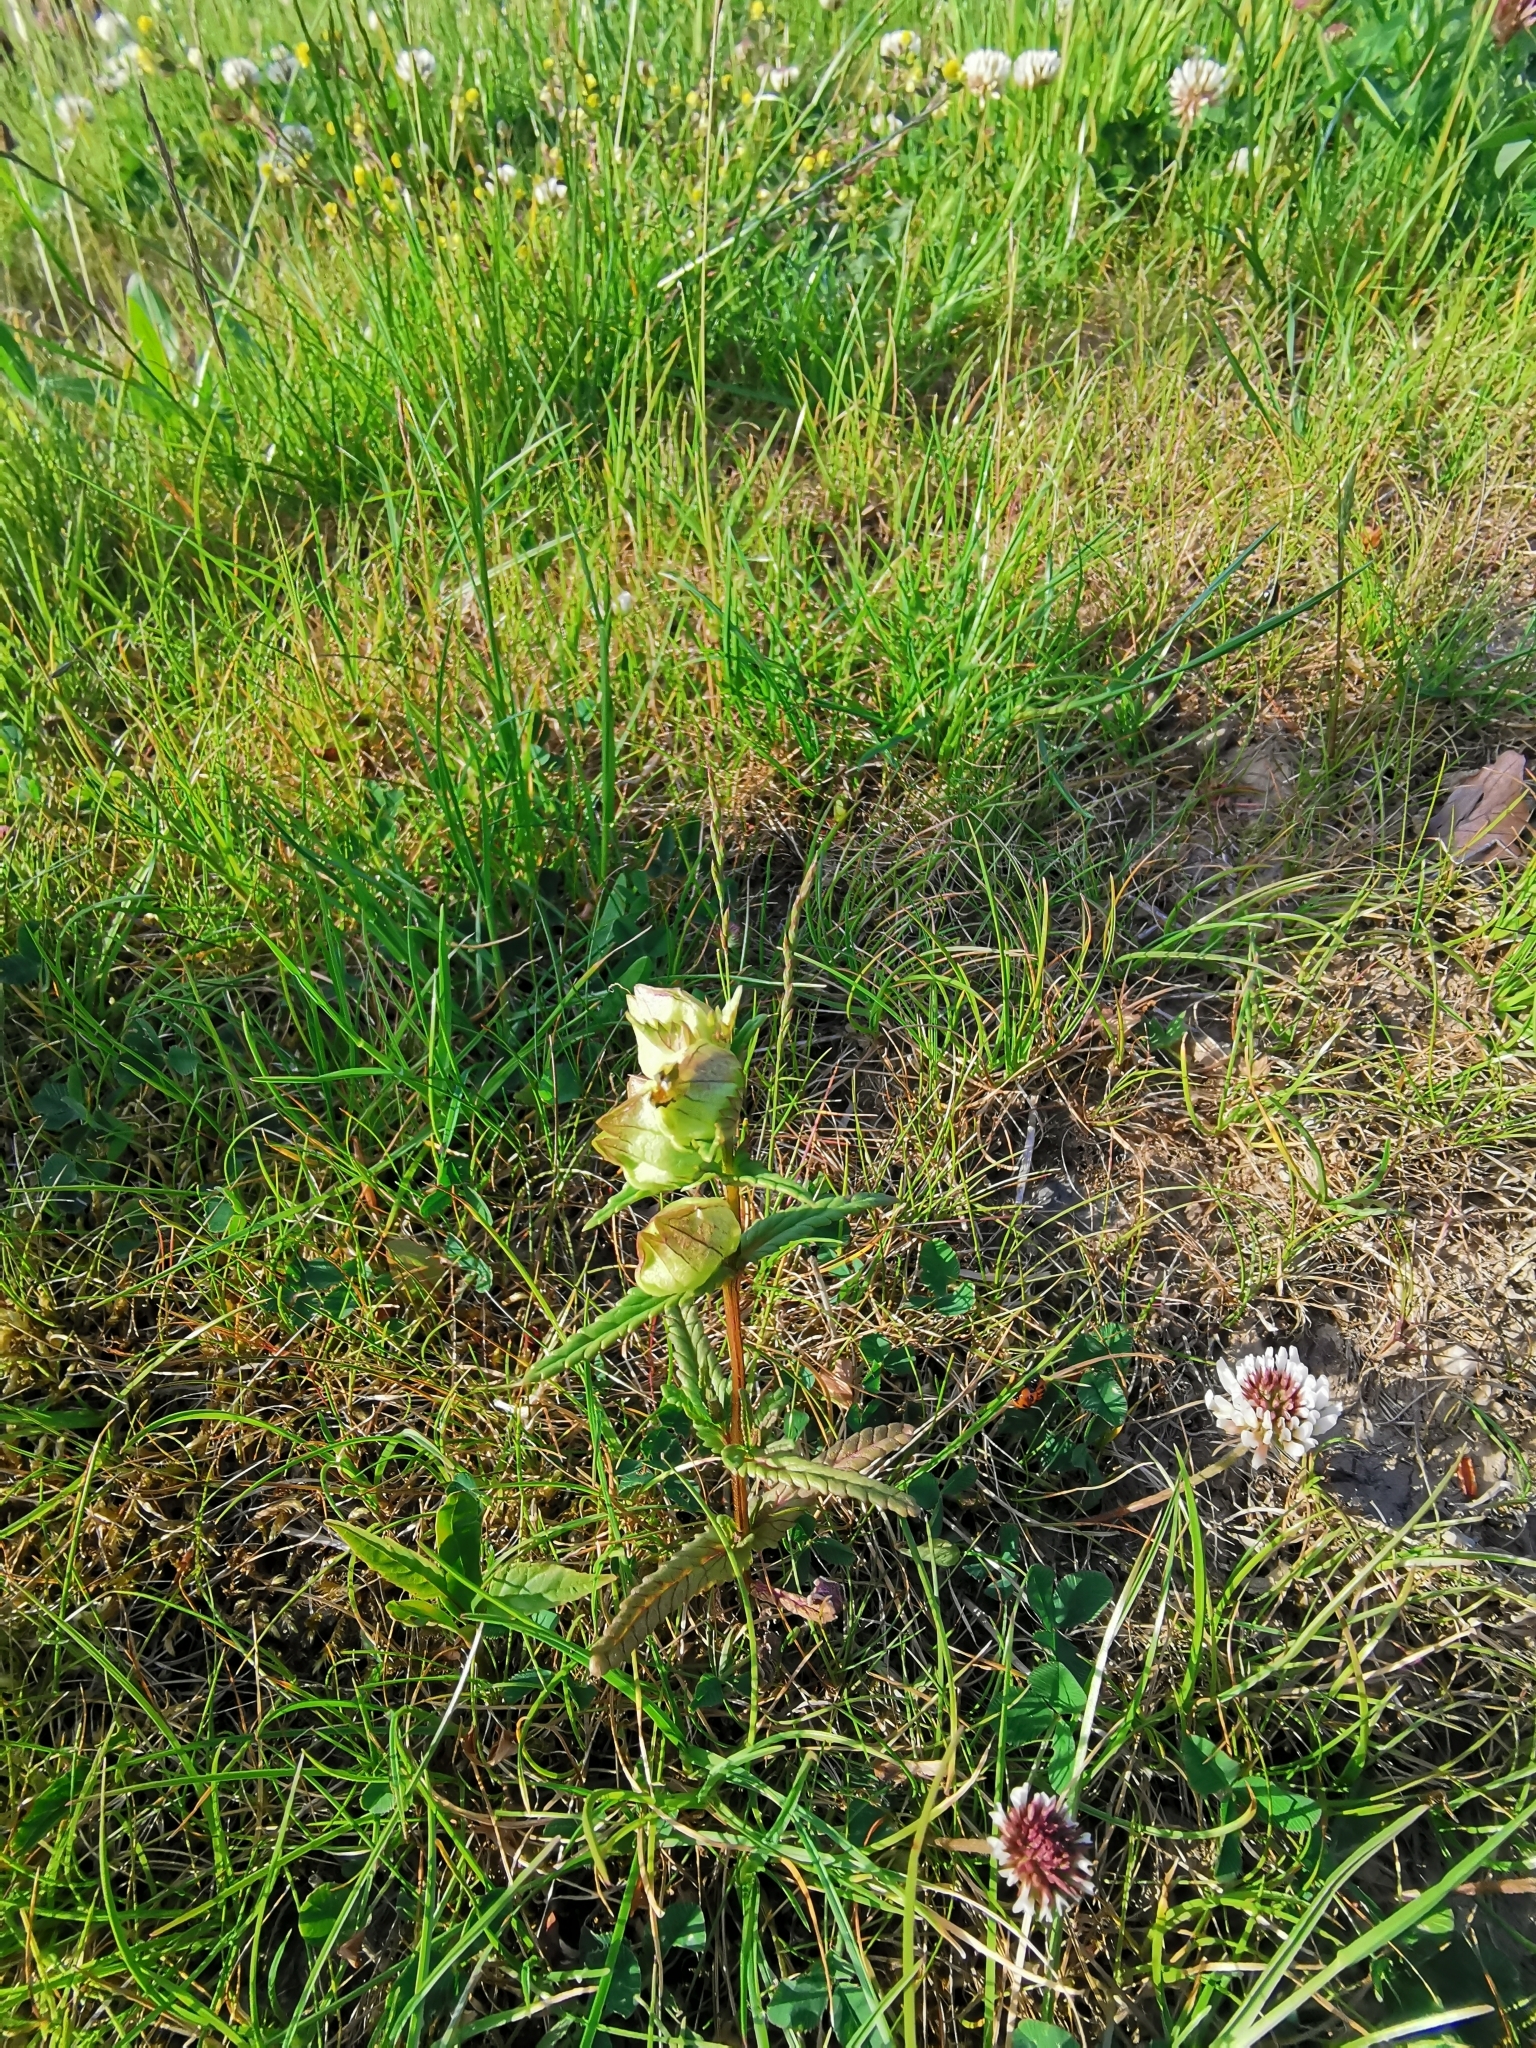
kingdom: Plantae
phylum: Tracheophyta
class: Magnoliopsida
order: Lamiales
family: Orobanchaceae
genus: Rhinanthus
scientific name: Rhinanthus minor
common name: Yellow-rattle
